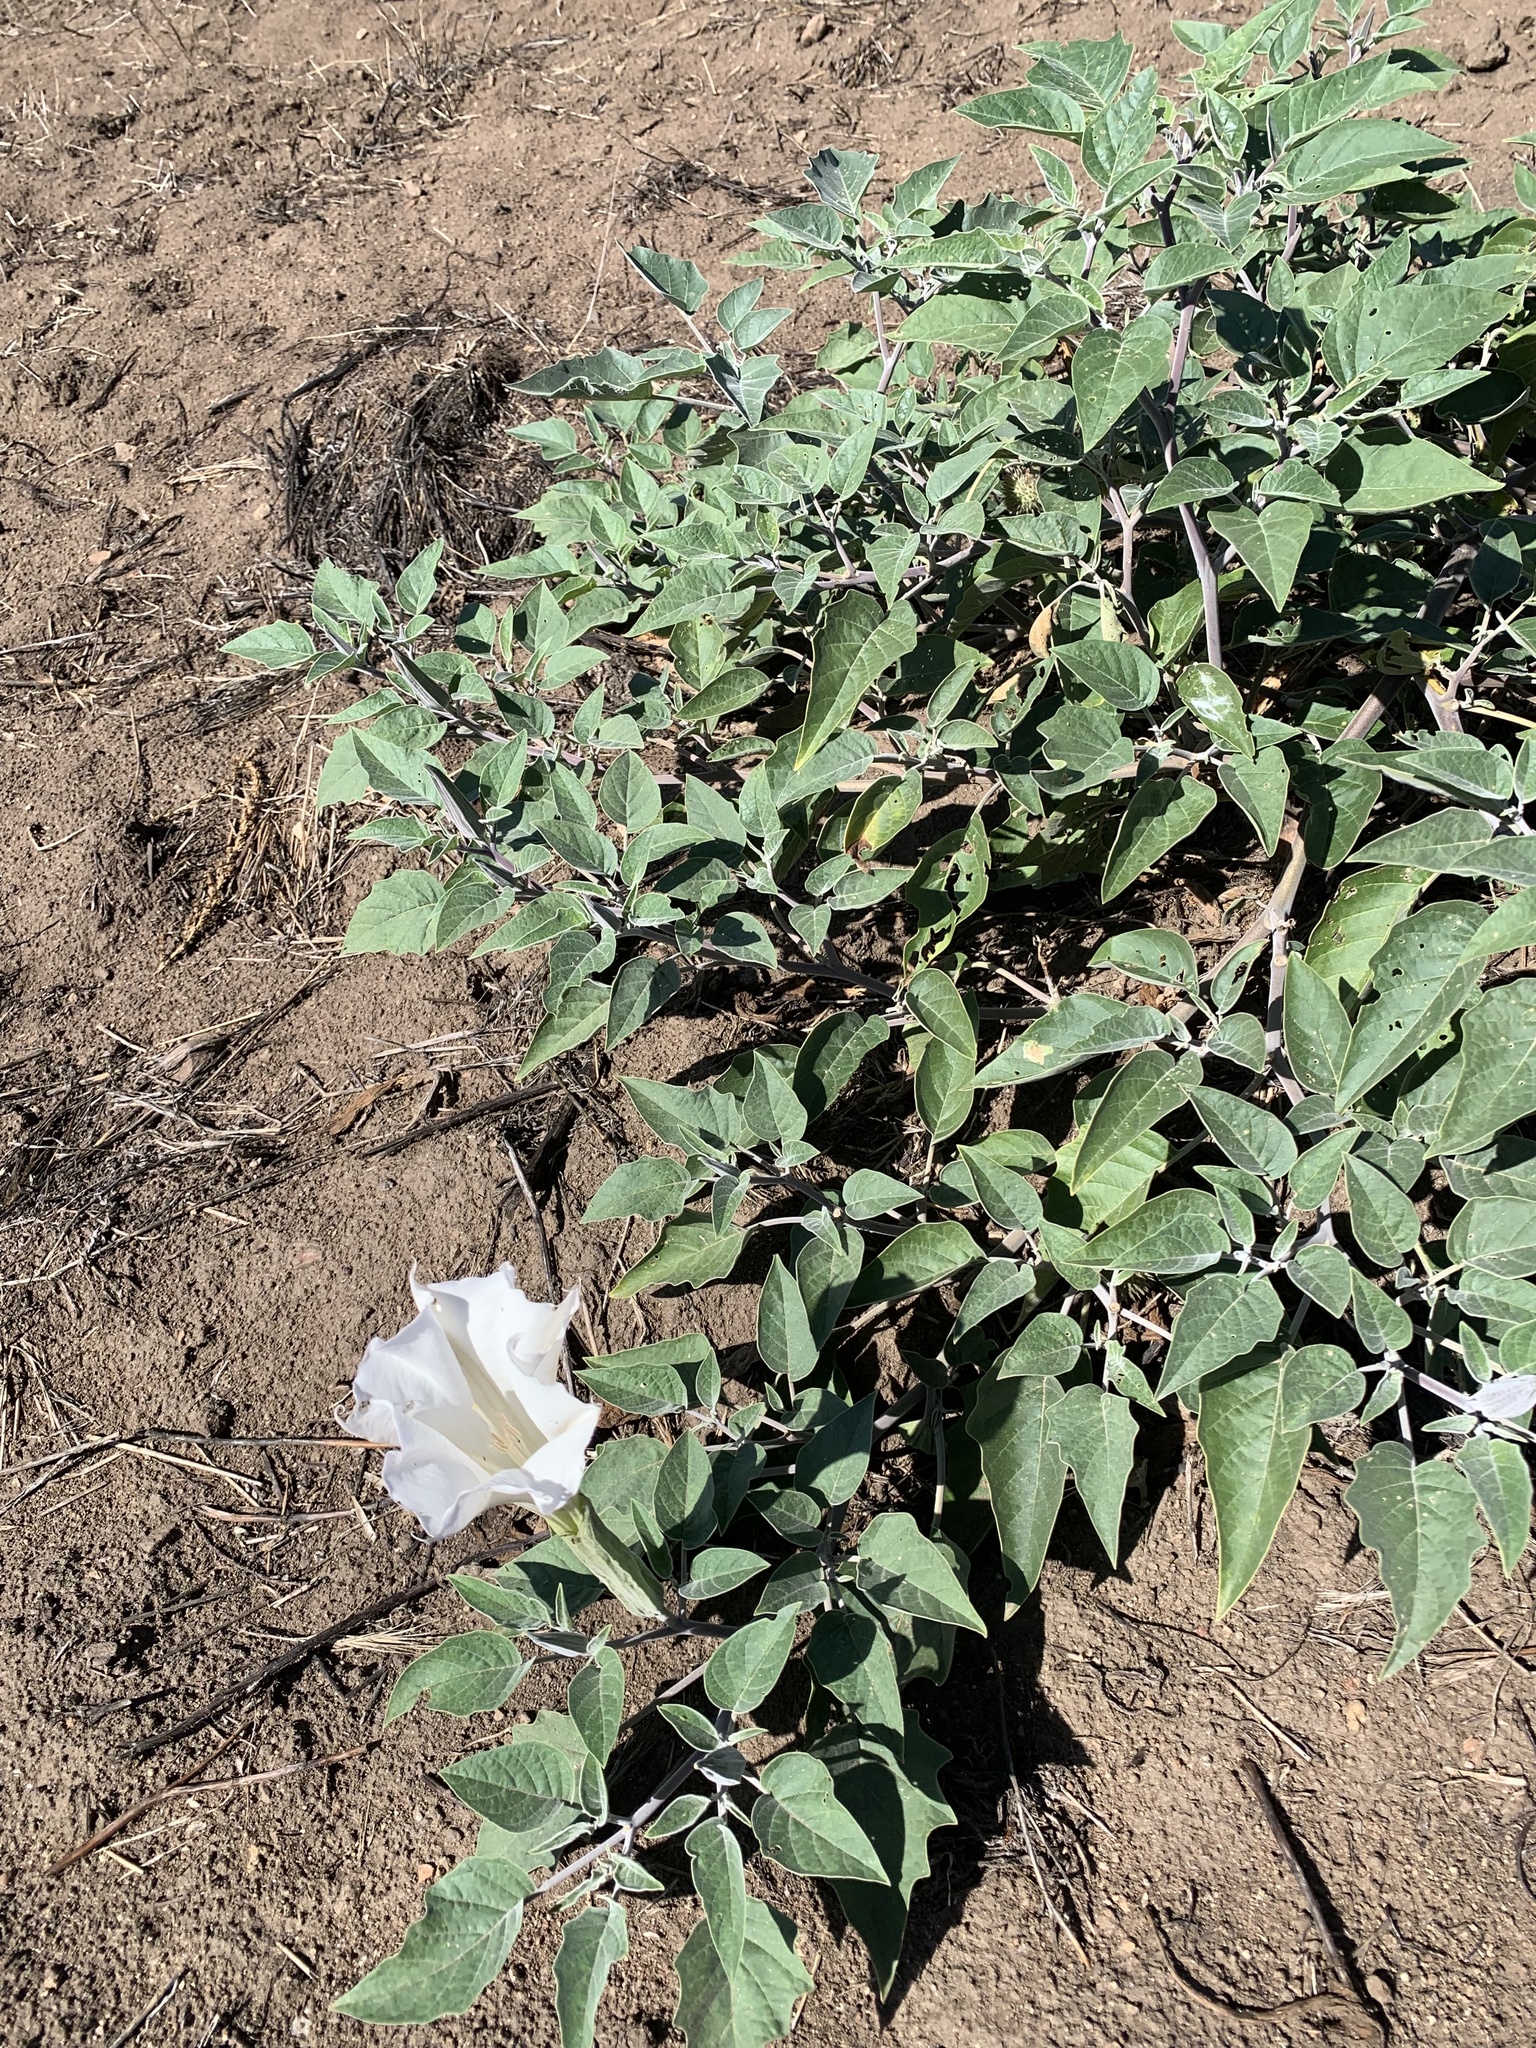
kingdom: Plantae
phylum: Tracheophyta
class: Magnoliopsida
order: Solanales
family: Solanaceae
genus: Datura
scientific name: Datura wrightii
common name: Sacred thorn-apple
